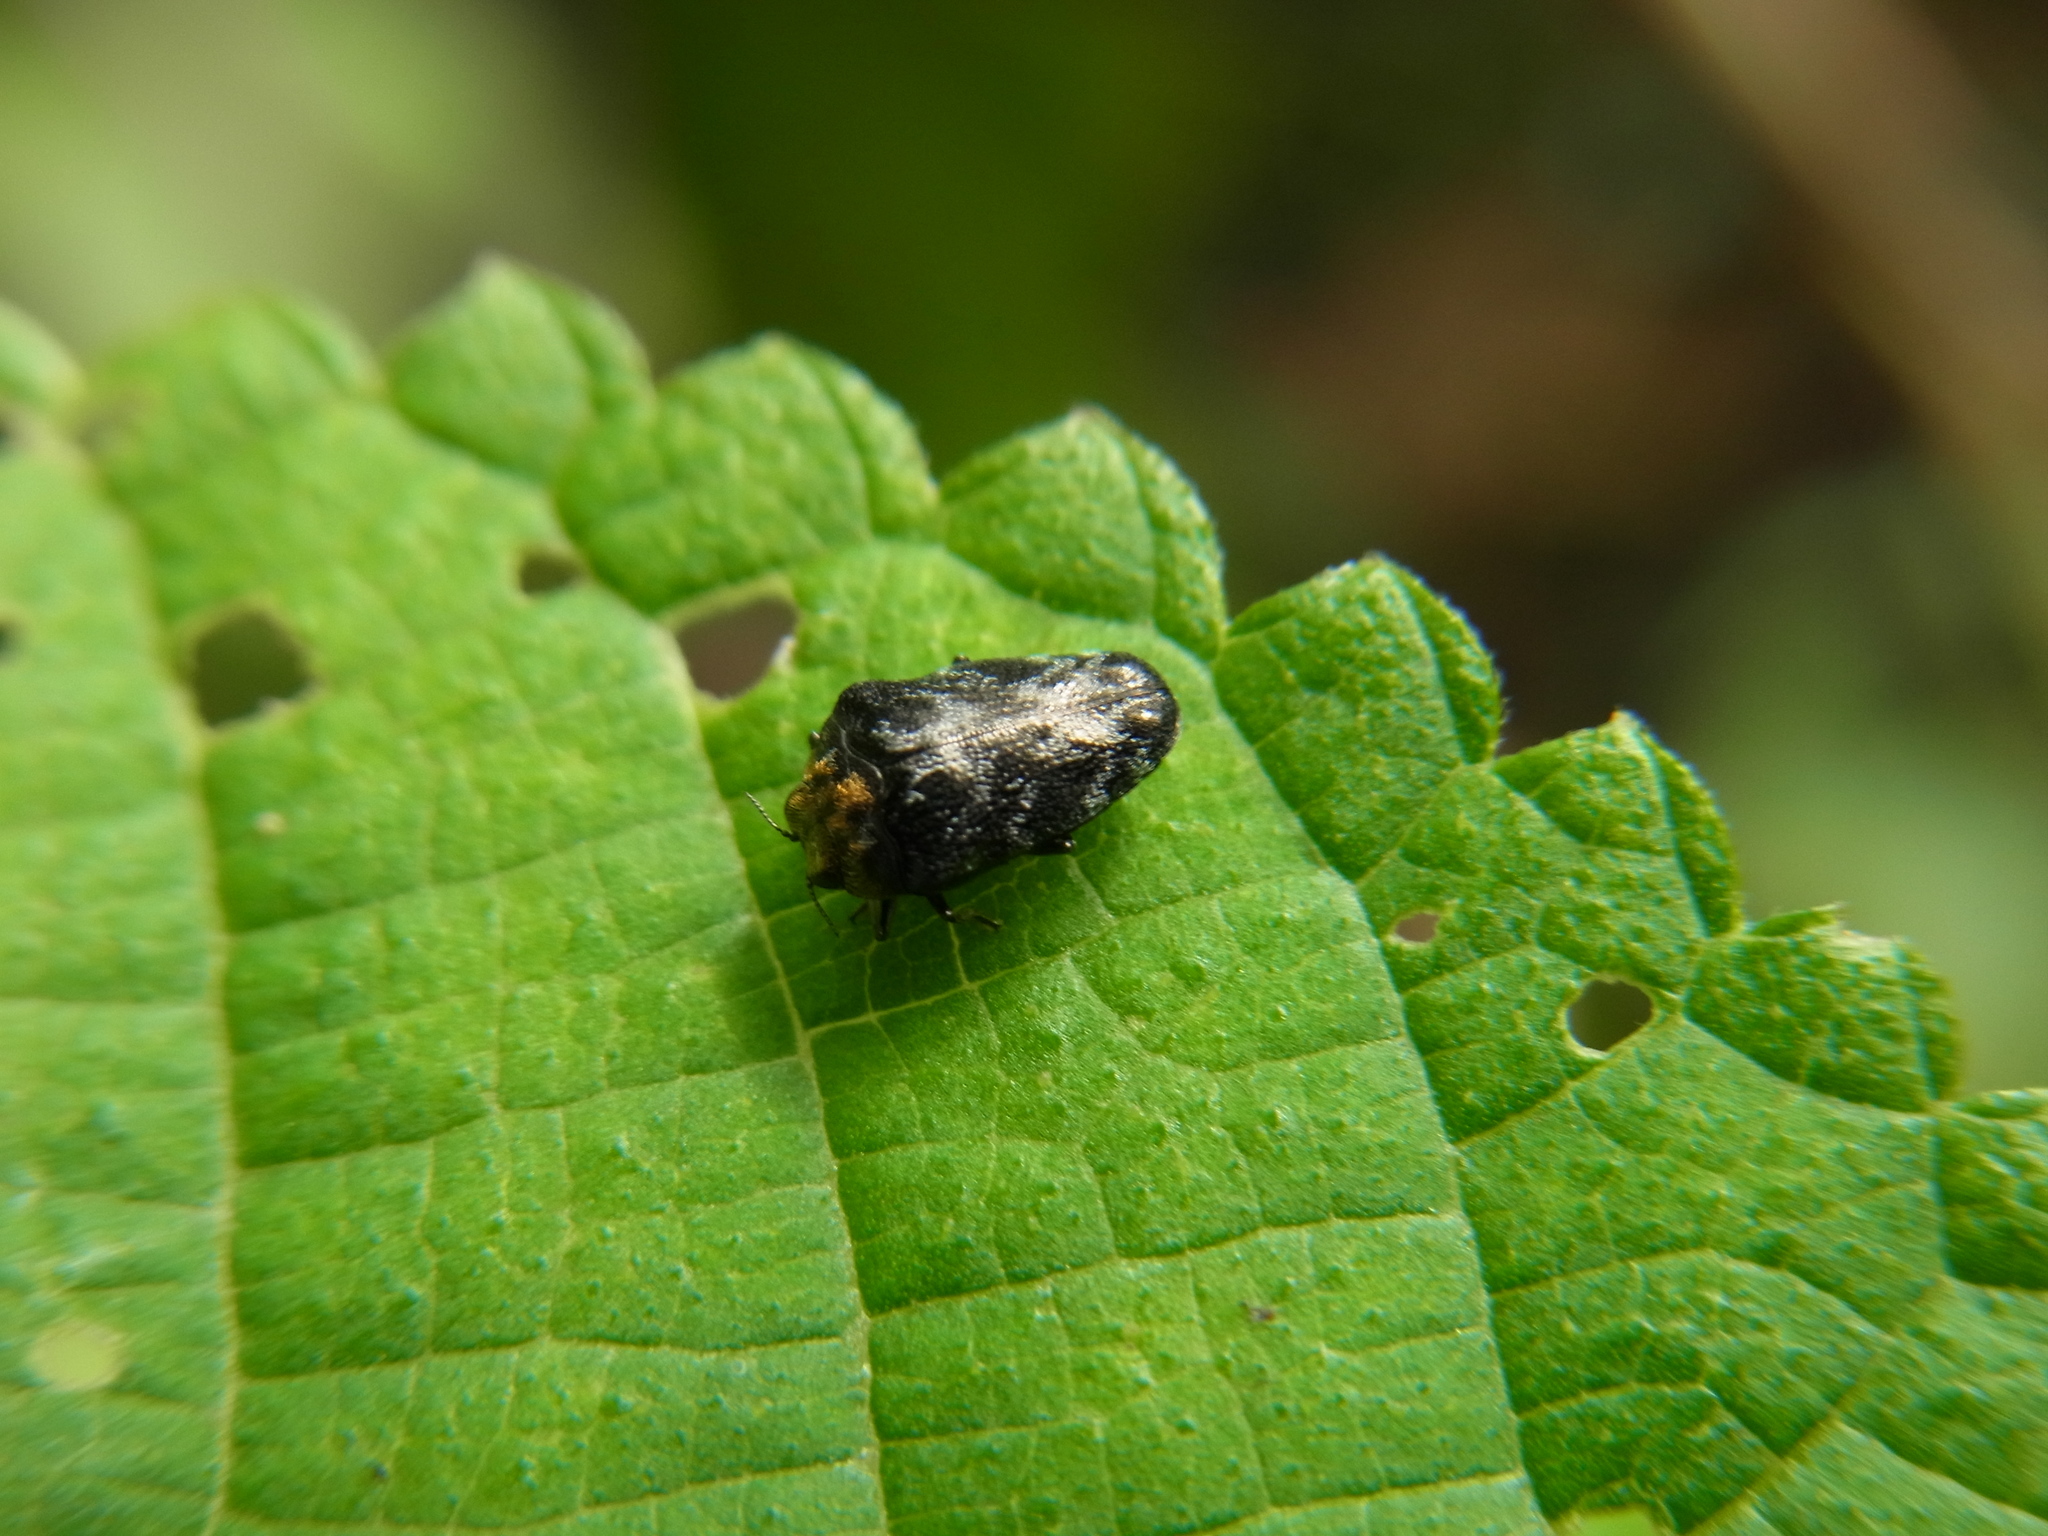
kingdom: Animalia
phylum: Arthropoda
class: Insecta
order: Coleoptera
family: Buprestidae
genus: Trachys
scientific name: Trachys auricollis
